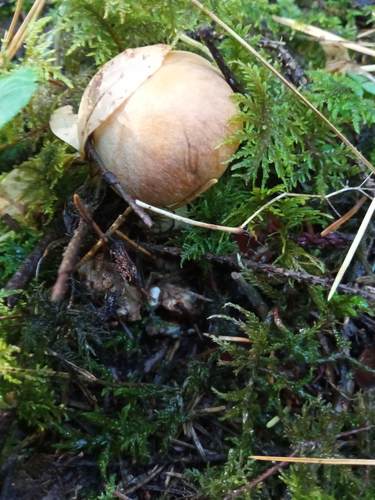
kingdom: Fungi
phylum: Basidiomycota
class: Agaricomycetes
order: Agaricales
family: Cortinariaceae
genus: Cortinarius
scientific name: Cortinarius
